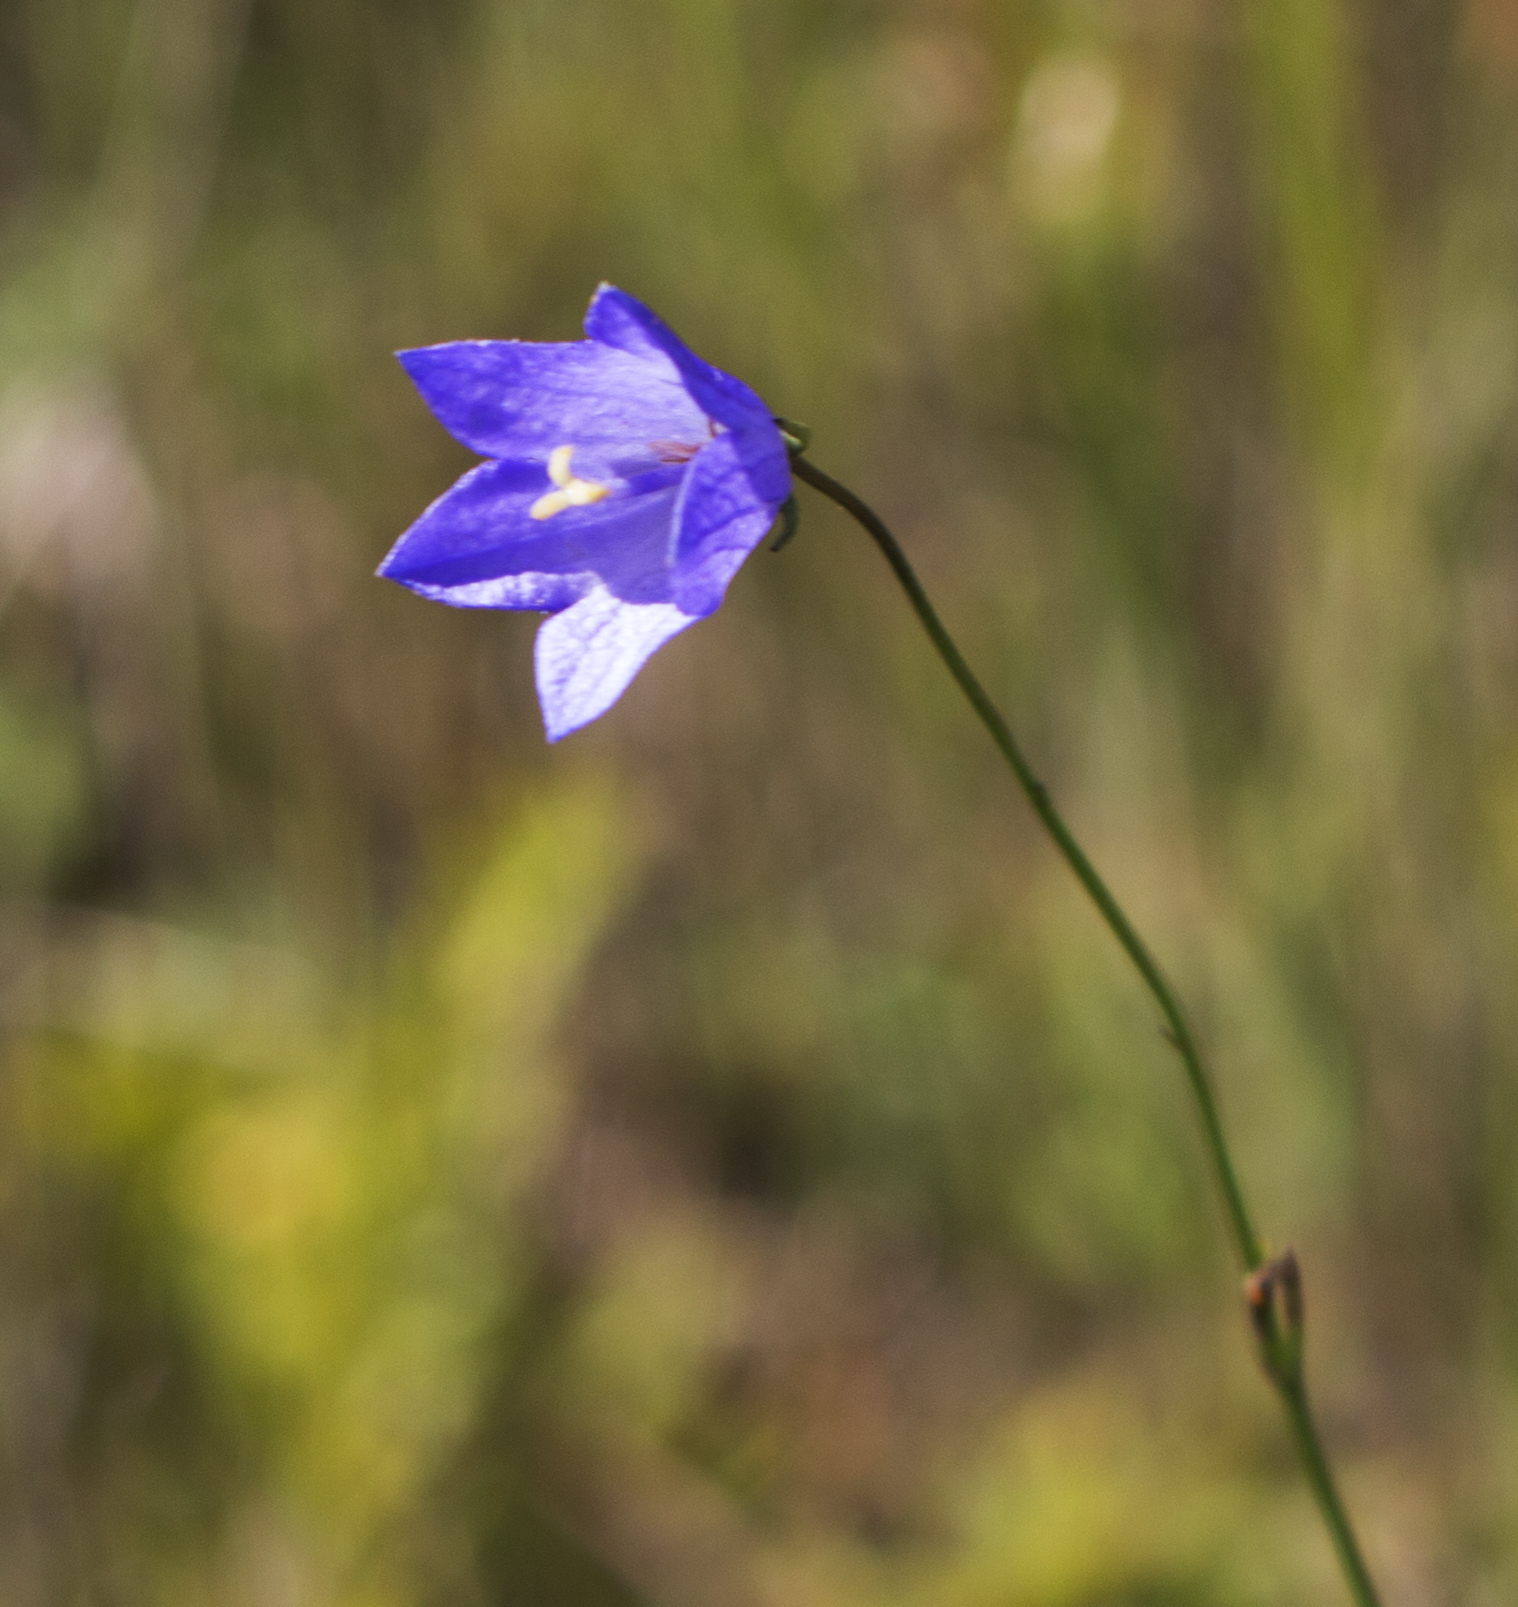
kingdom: Plantae
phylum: Tracheophyta
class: Magnoliopsida
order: Asterales
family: Campanulaceae
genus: Campanula
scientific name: Campanula intercedens
